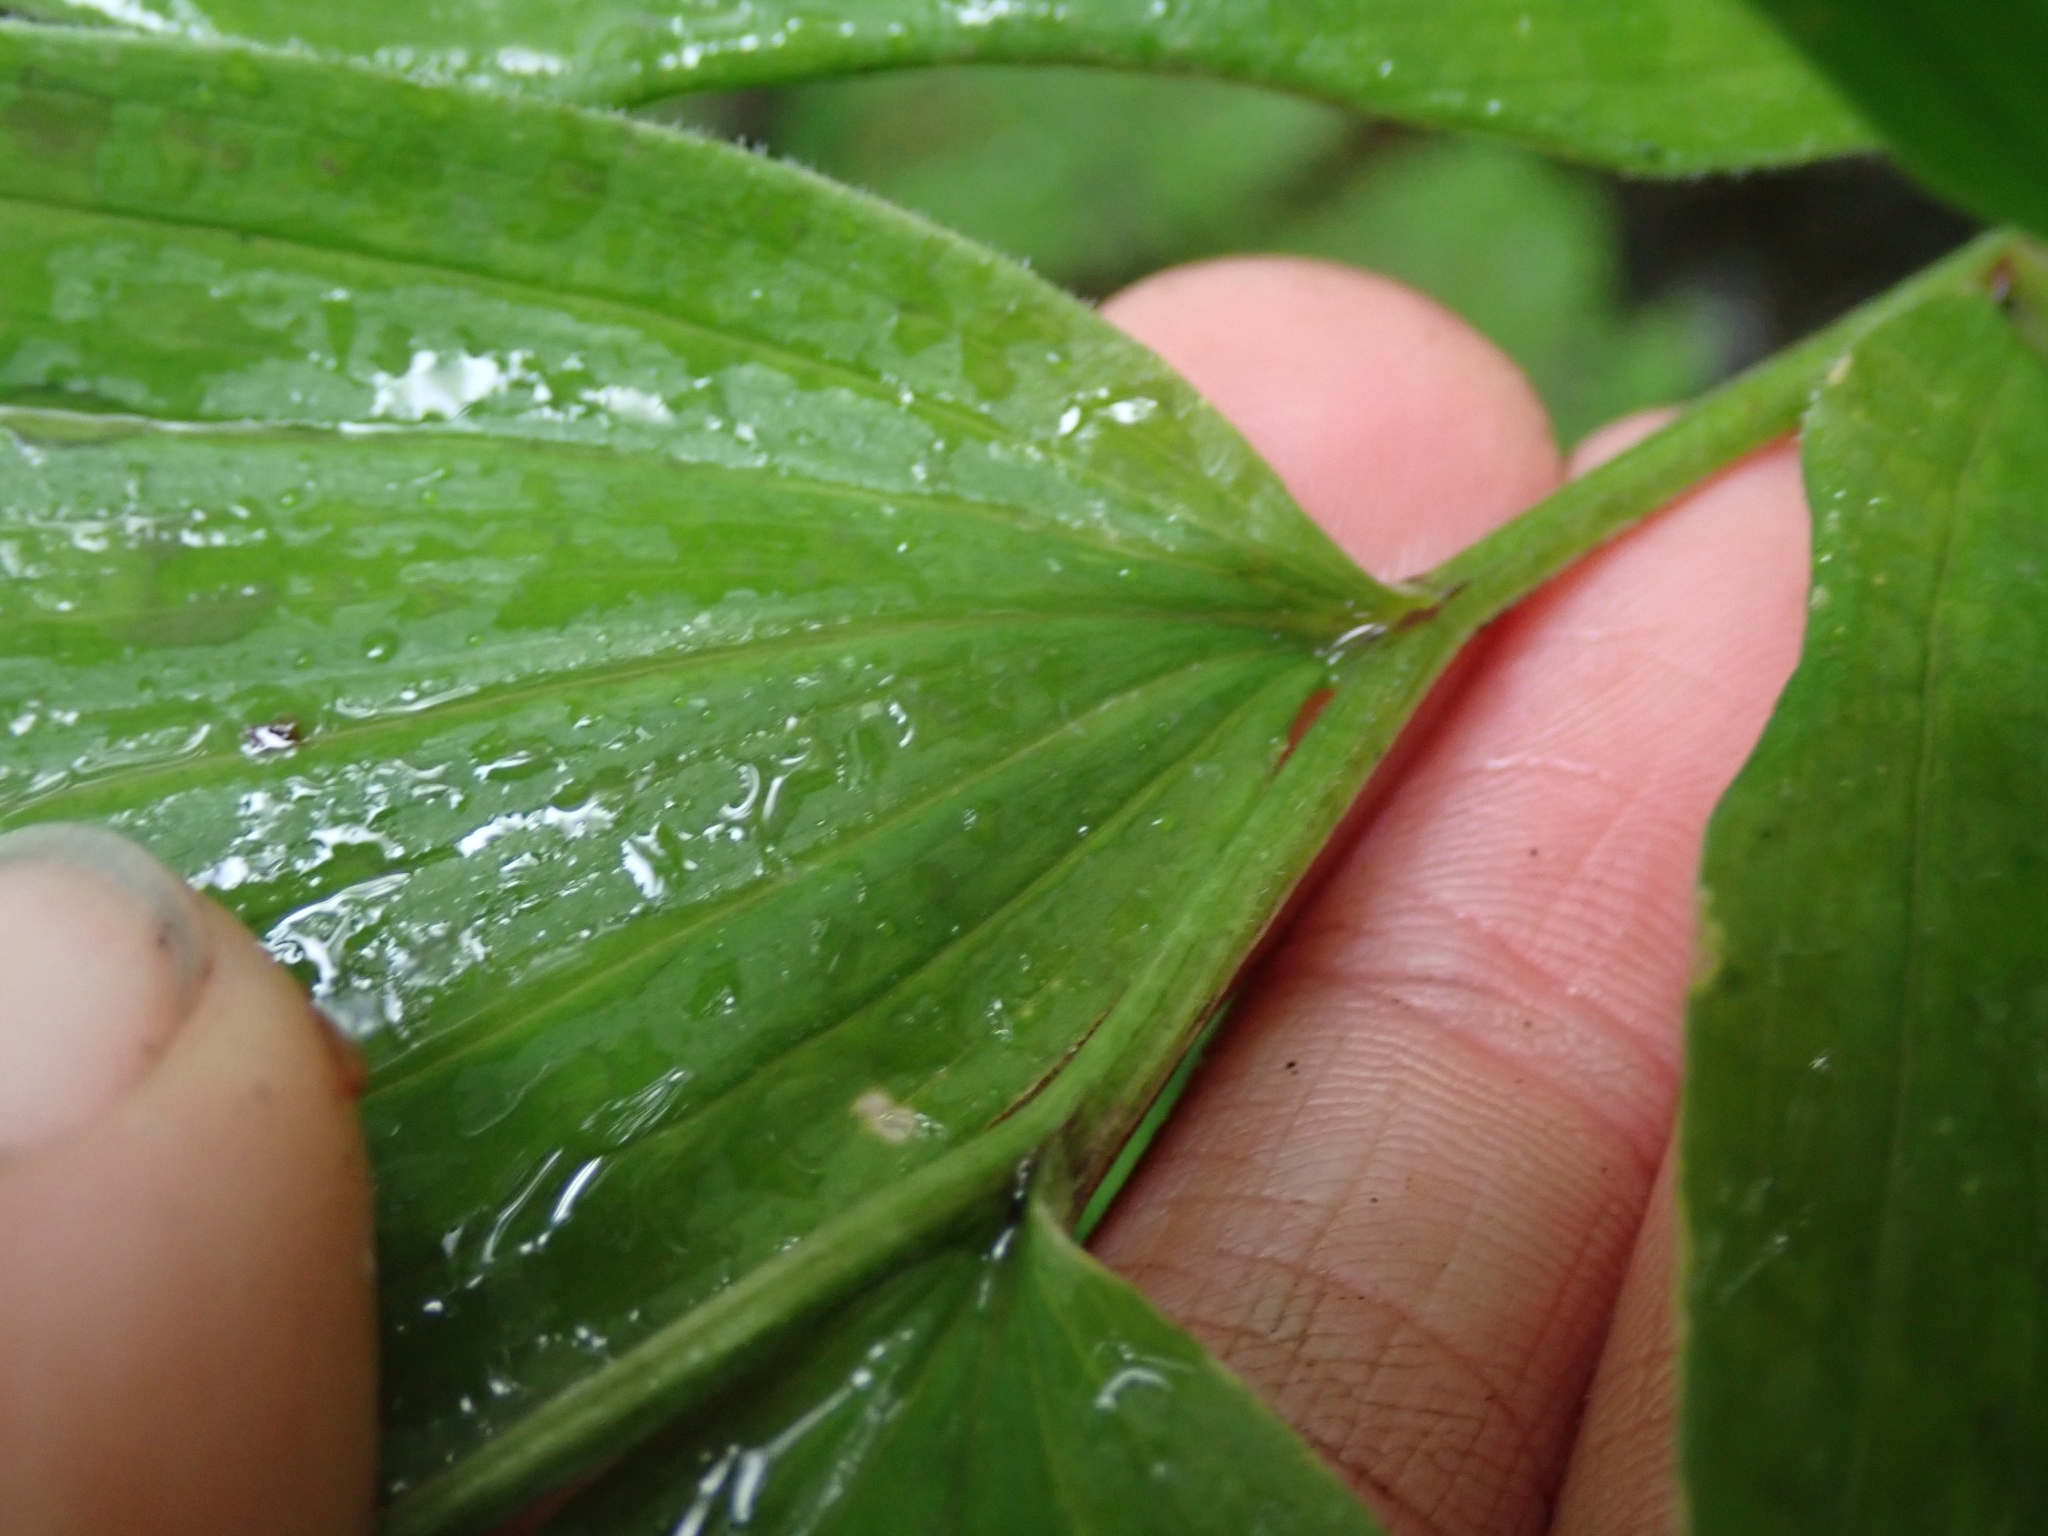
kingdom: Plantae
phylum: Tracheophyta
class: Liliopsida
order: Asparagales
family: Asparagaceae
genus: Maianthemum
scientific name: Maianthemum racemosum
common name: False spikenard
